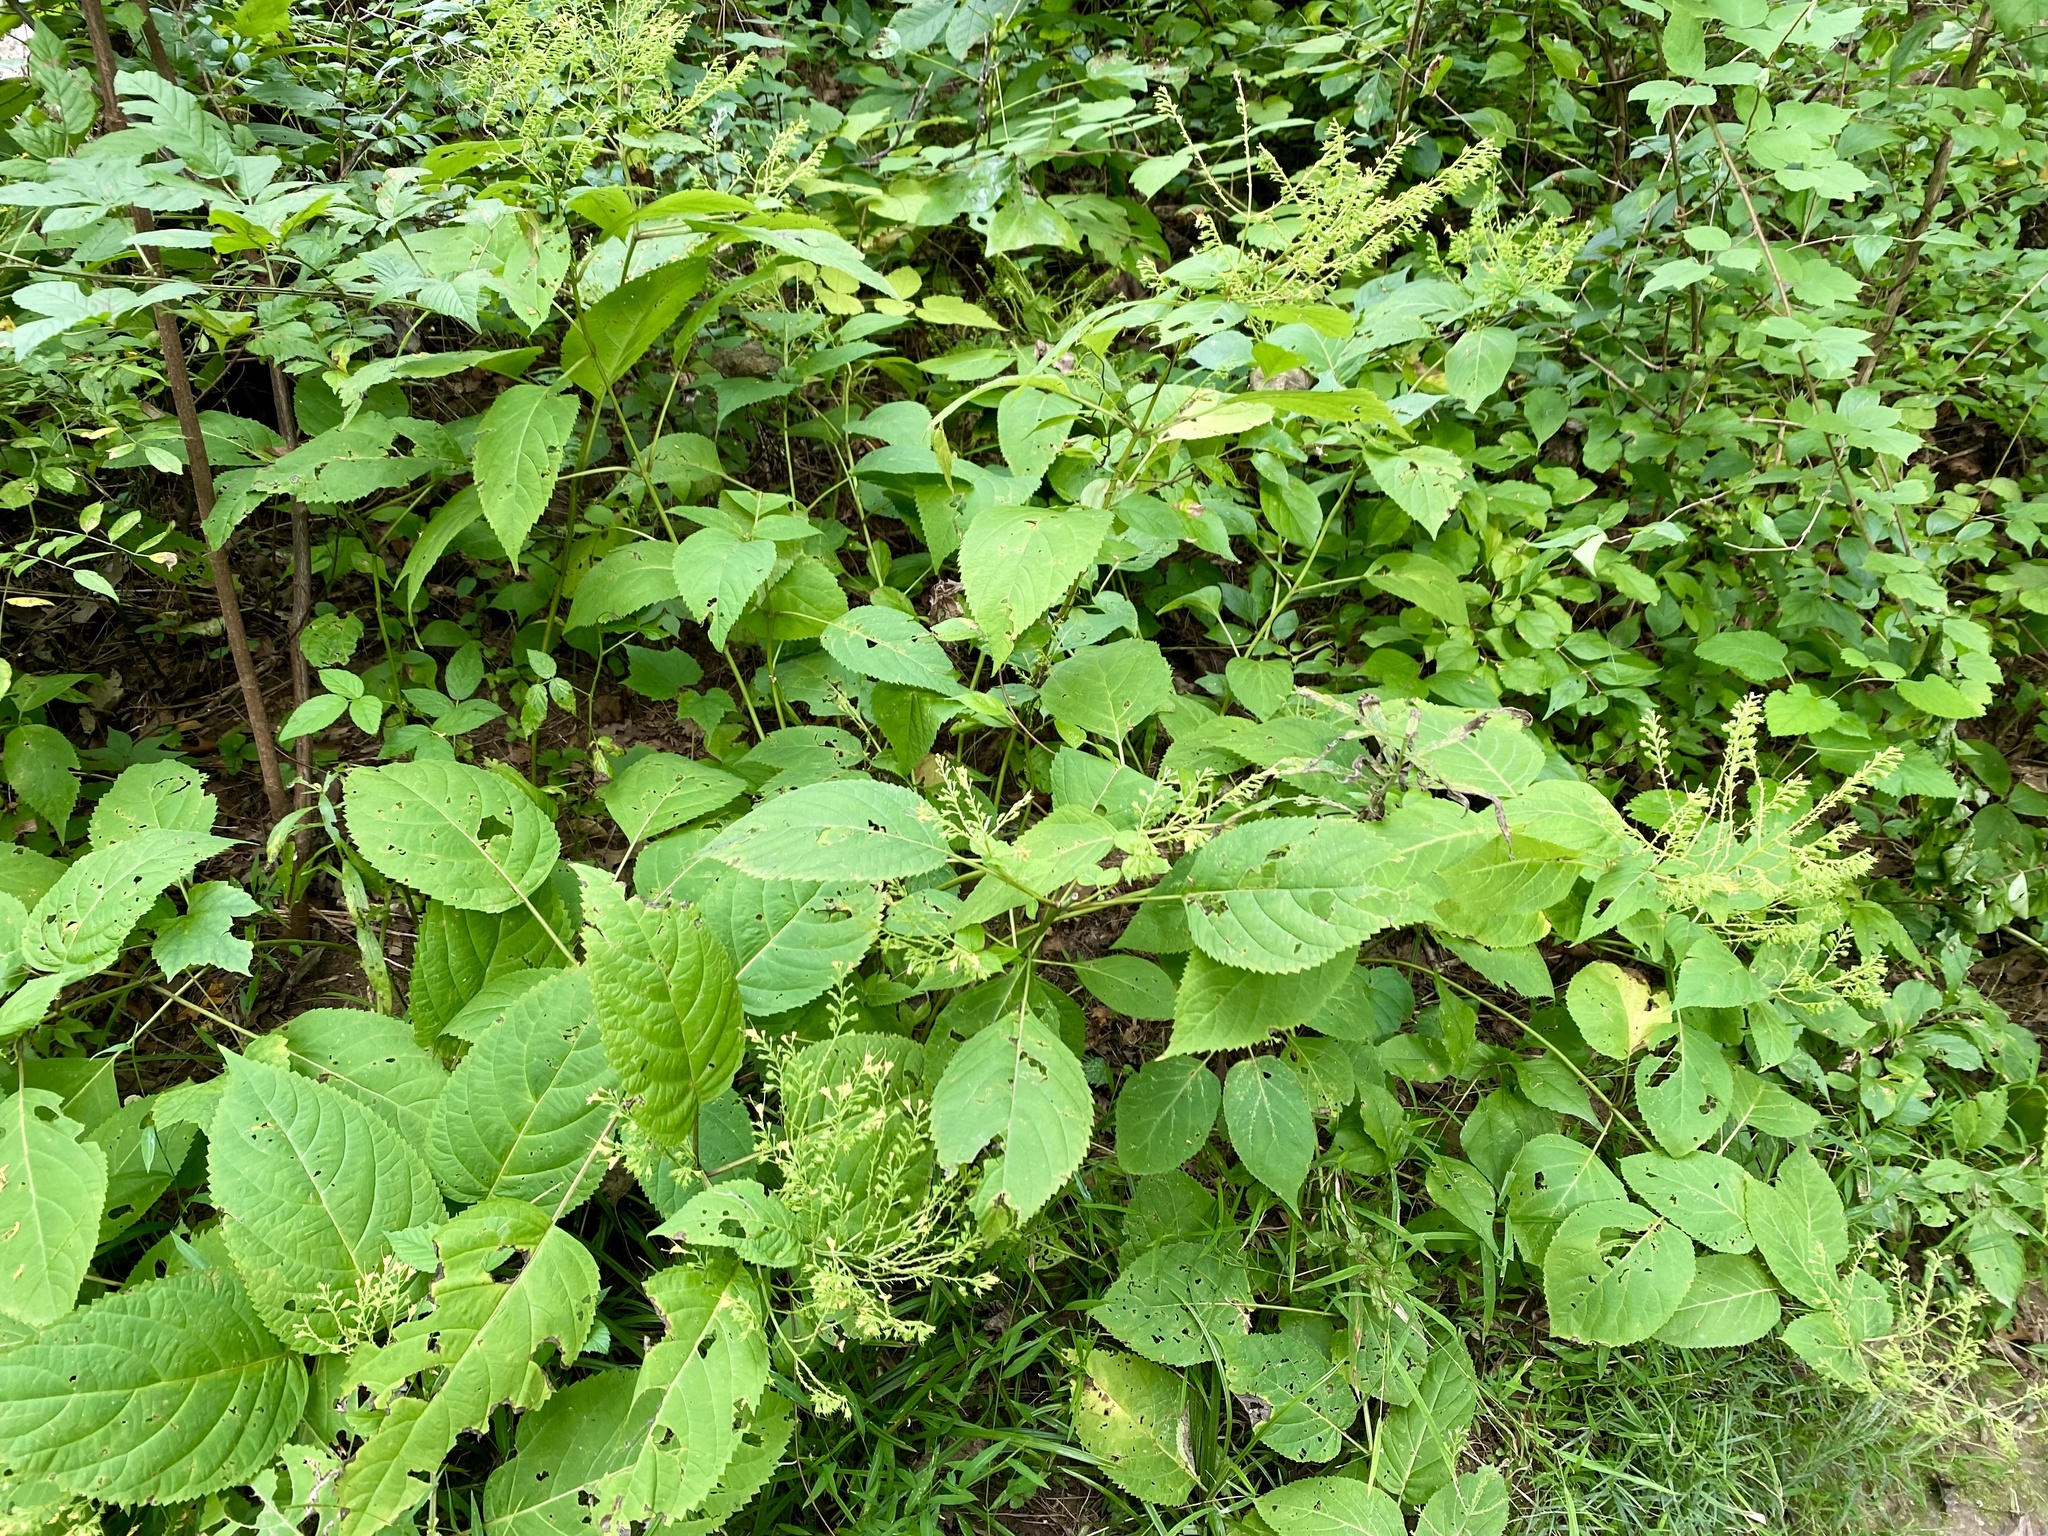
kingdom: Plantae
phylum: Tracheophyta
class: Magnoliopsida
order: Lamiales
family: Lamiaceae
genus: Collinsonia
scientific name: Collinsonia canadensis
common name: Northern horsebalm
